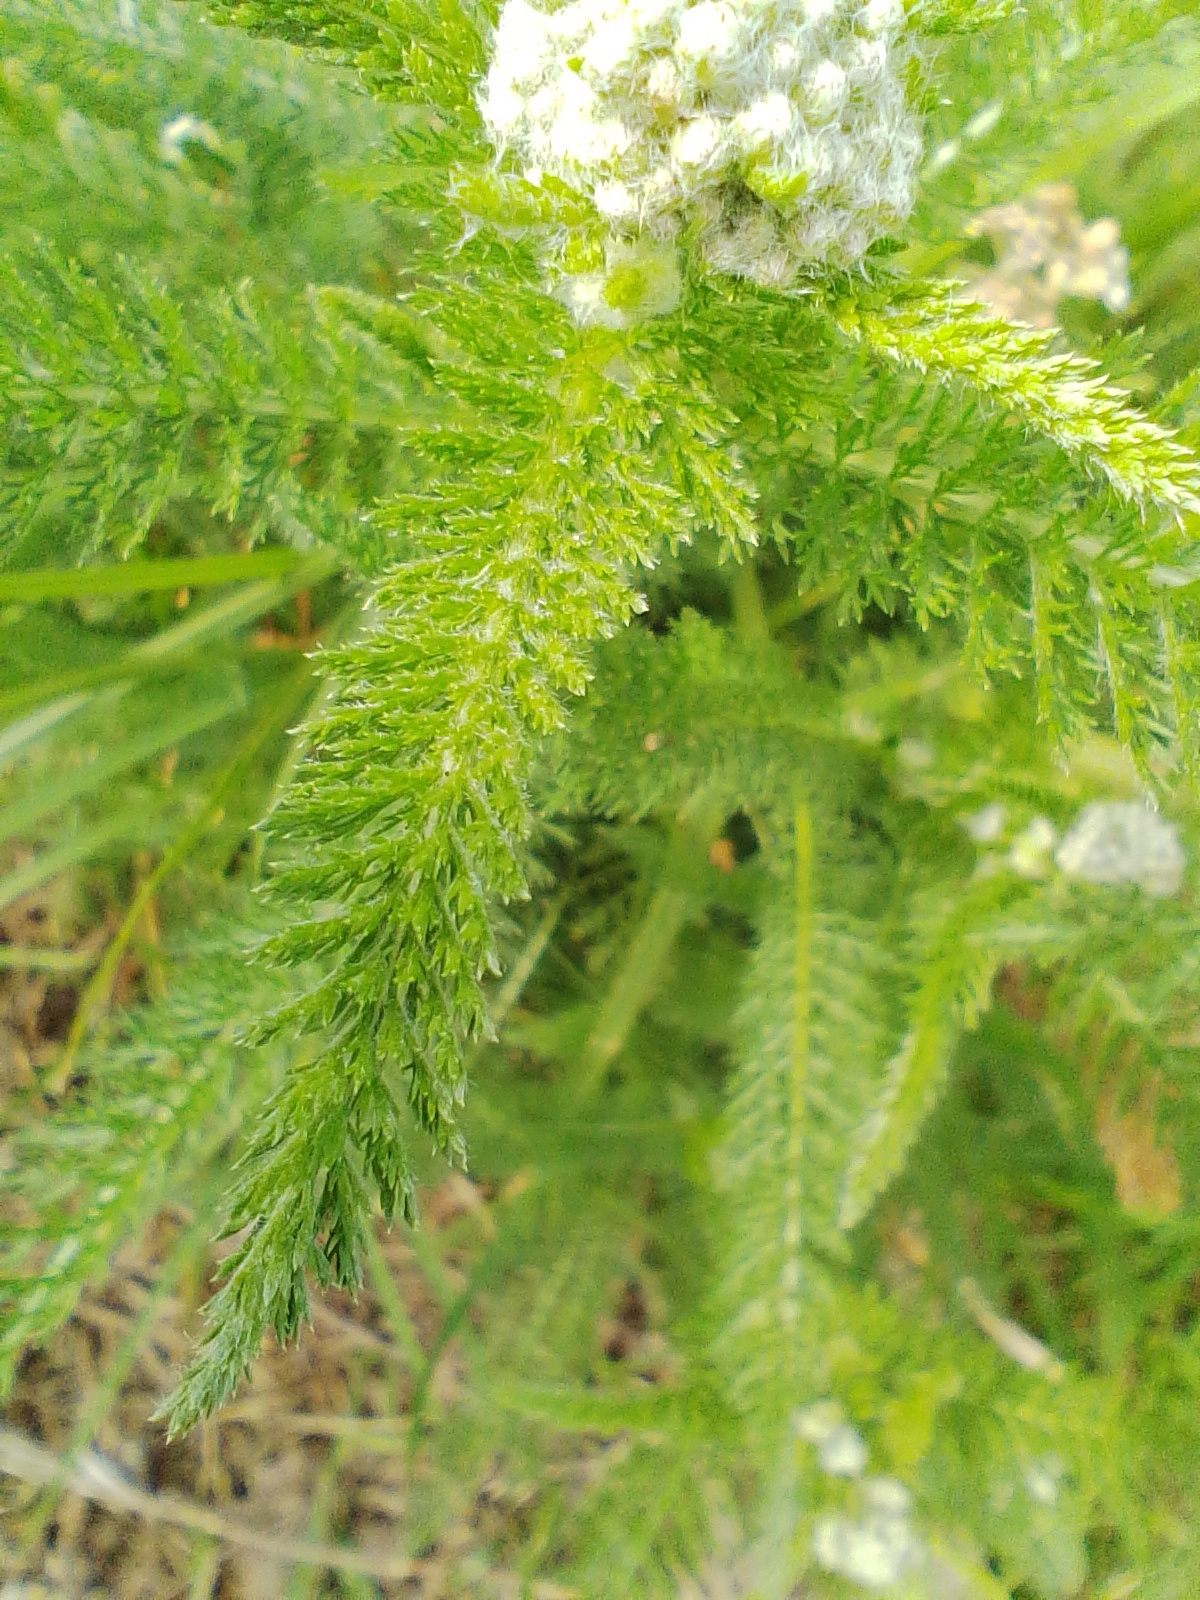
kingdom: Plantae
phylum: Tracheophyta
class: Magnoliopsida
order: Asterales
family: Asteraceae
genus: Achillea
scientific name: Achillea millefolium
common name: Yarrow
